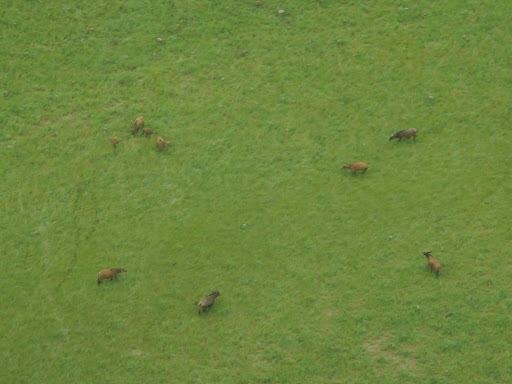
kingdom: Animalia
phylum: Chordata
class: Mammalia
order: Artiodactyla
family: Bovidae
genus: Syncerus
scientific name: Syncerus caffer
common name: African buffalo
